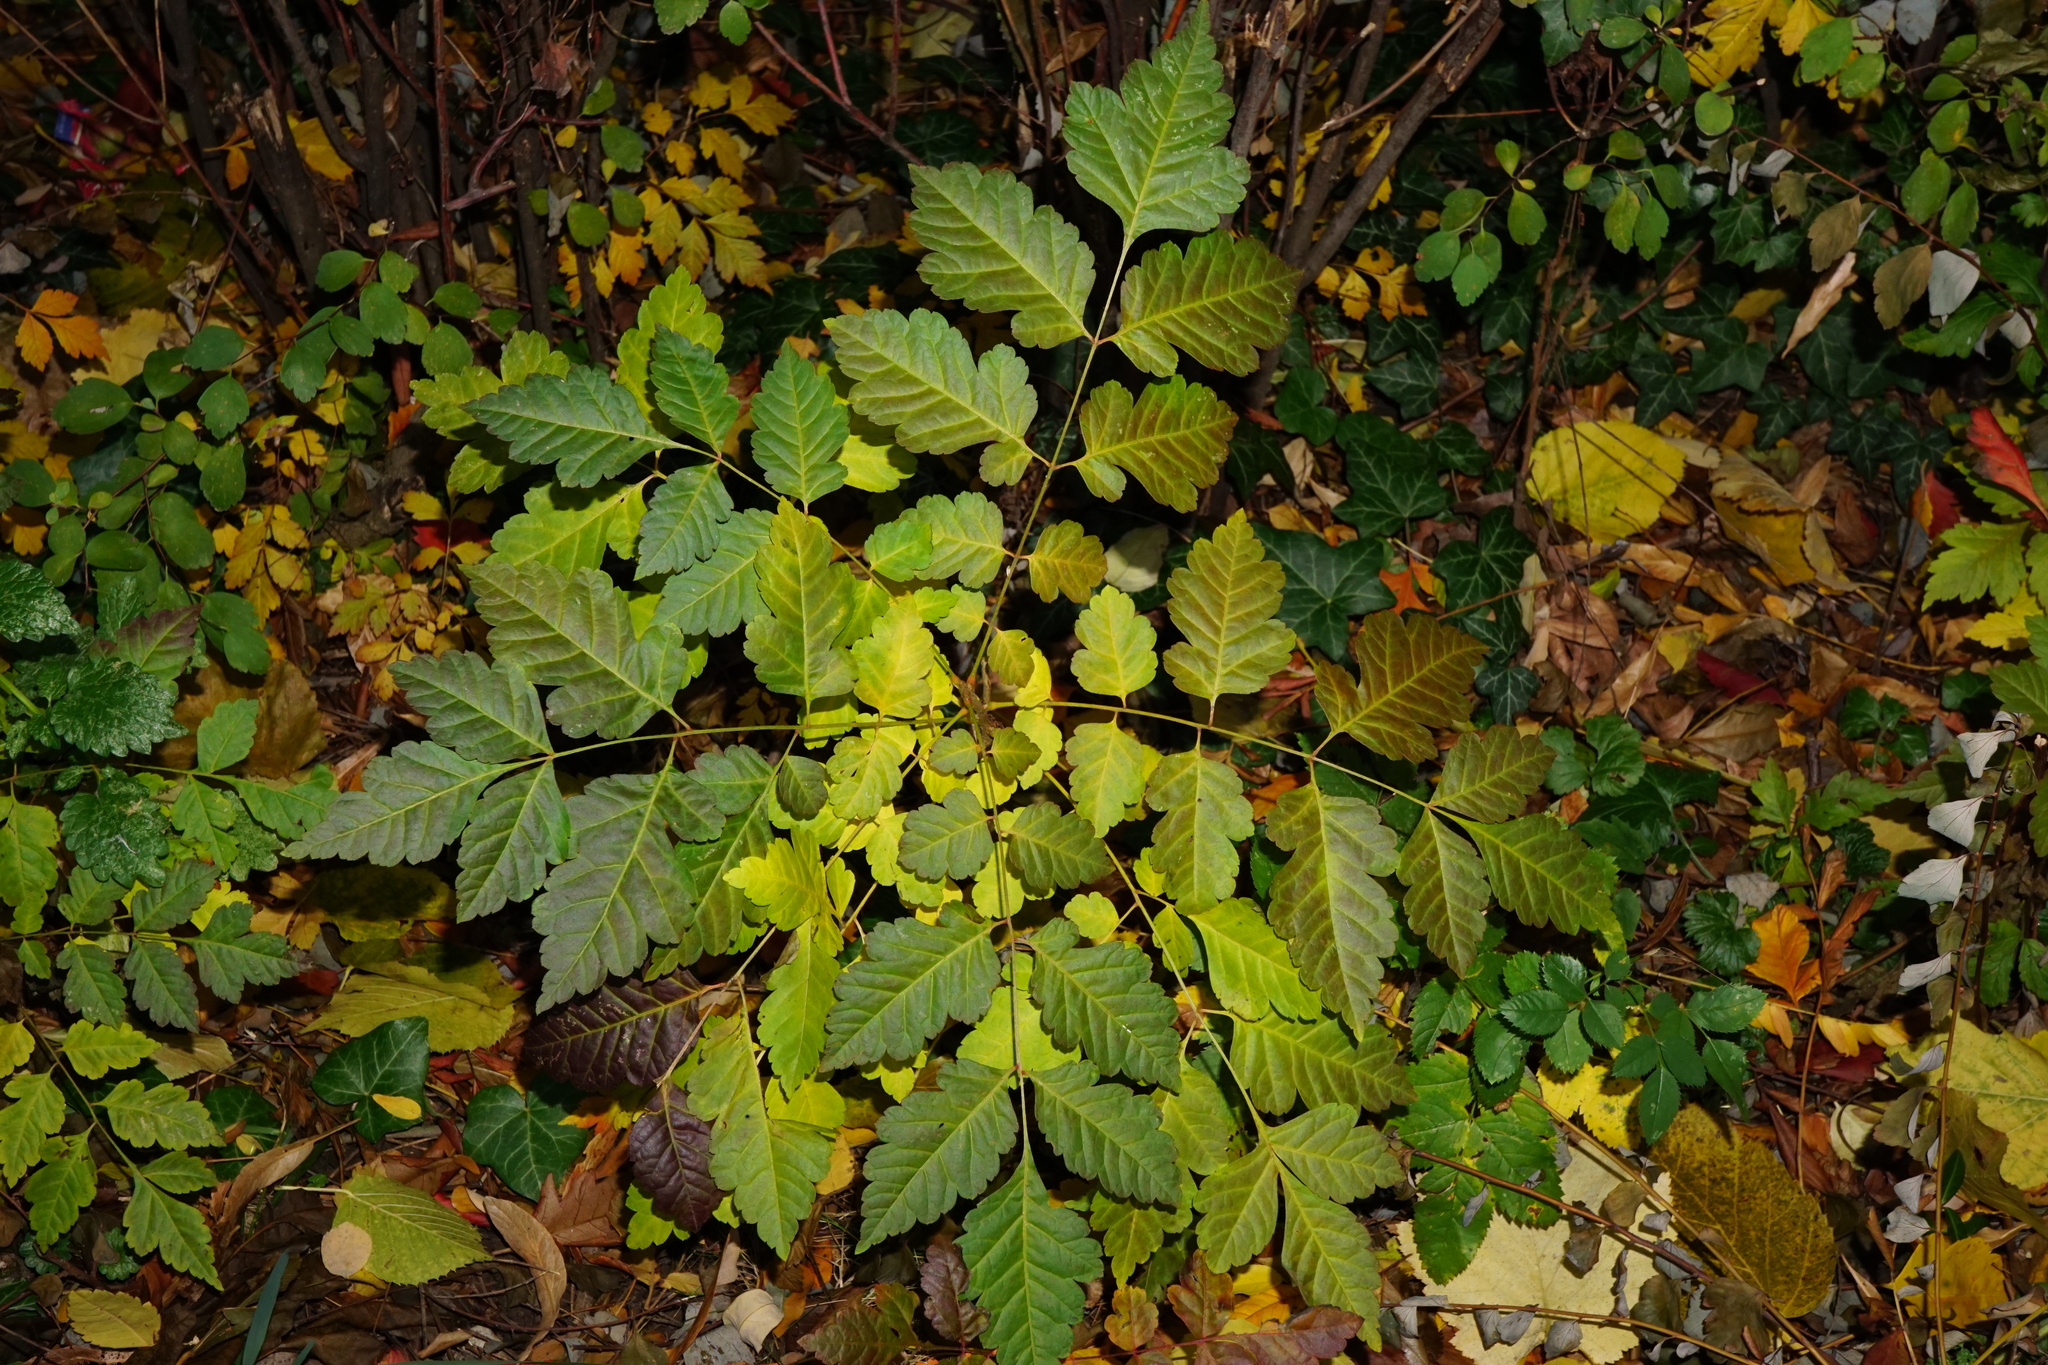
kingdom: Plantae
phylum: Tracheophyta
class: Magnoliopsida
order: Sapindales
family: Sapindaceae
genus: Koelreuteria
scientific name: Koelreuteria paniculata
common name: Pride-of-india
